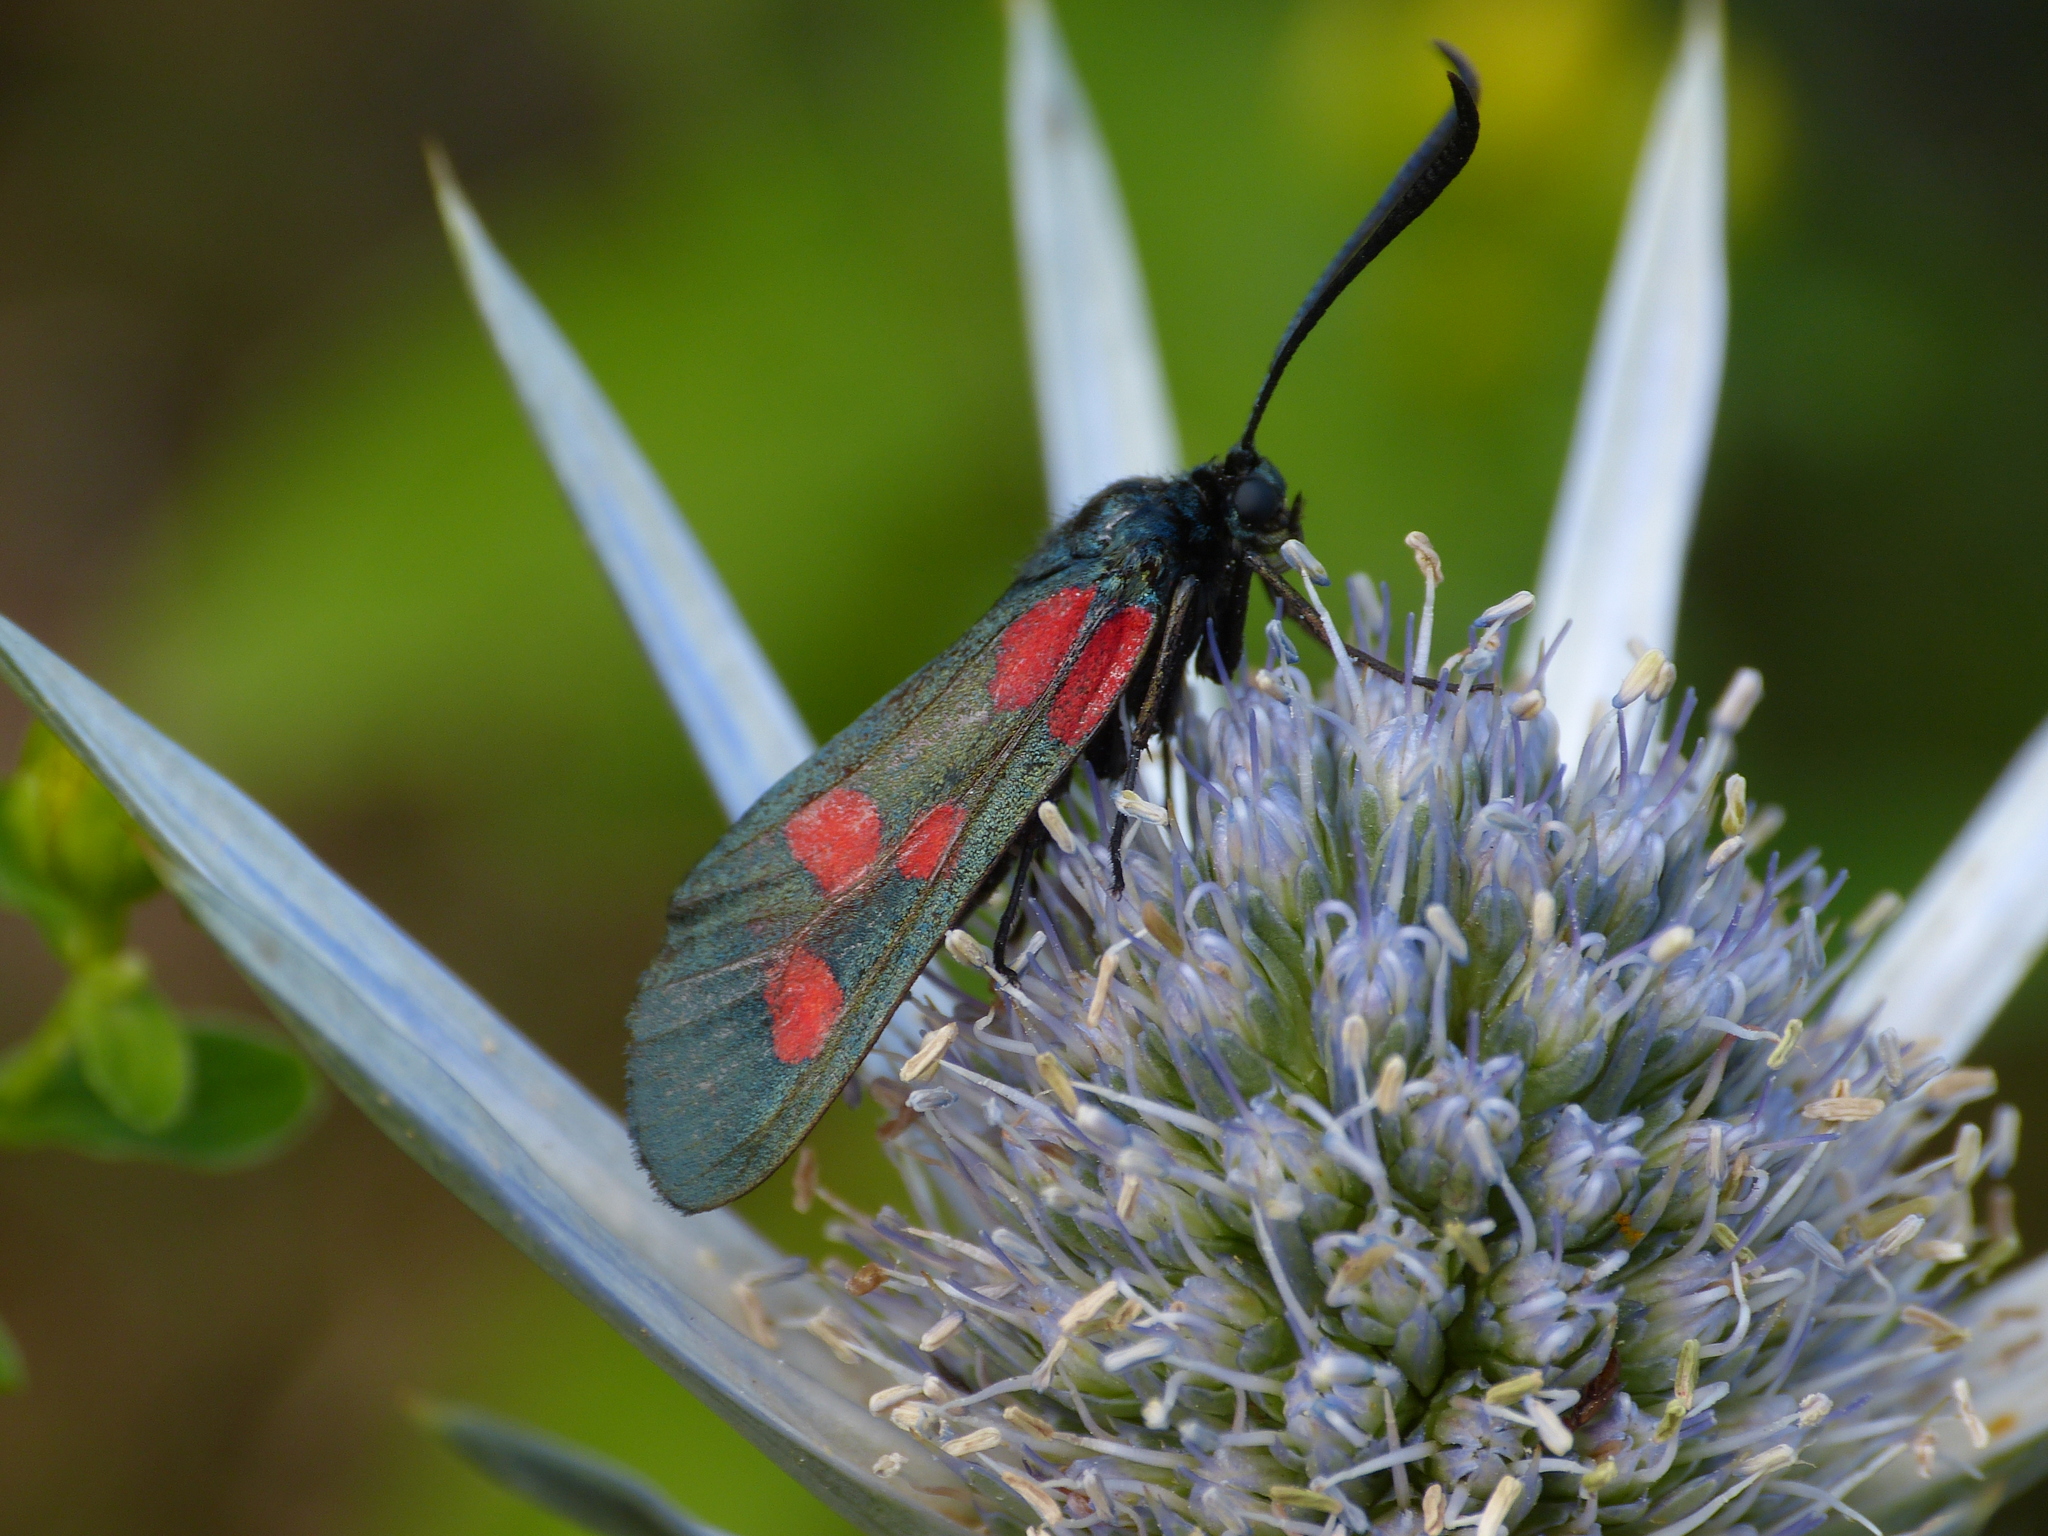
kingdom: Animalia
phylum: Arthropoda
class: Insecta
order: Lepidoptera
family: Zygaenidae
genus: Zygaena
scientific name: Zygaena lonicerae
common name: Narrow-bordered five-spot burnet
